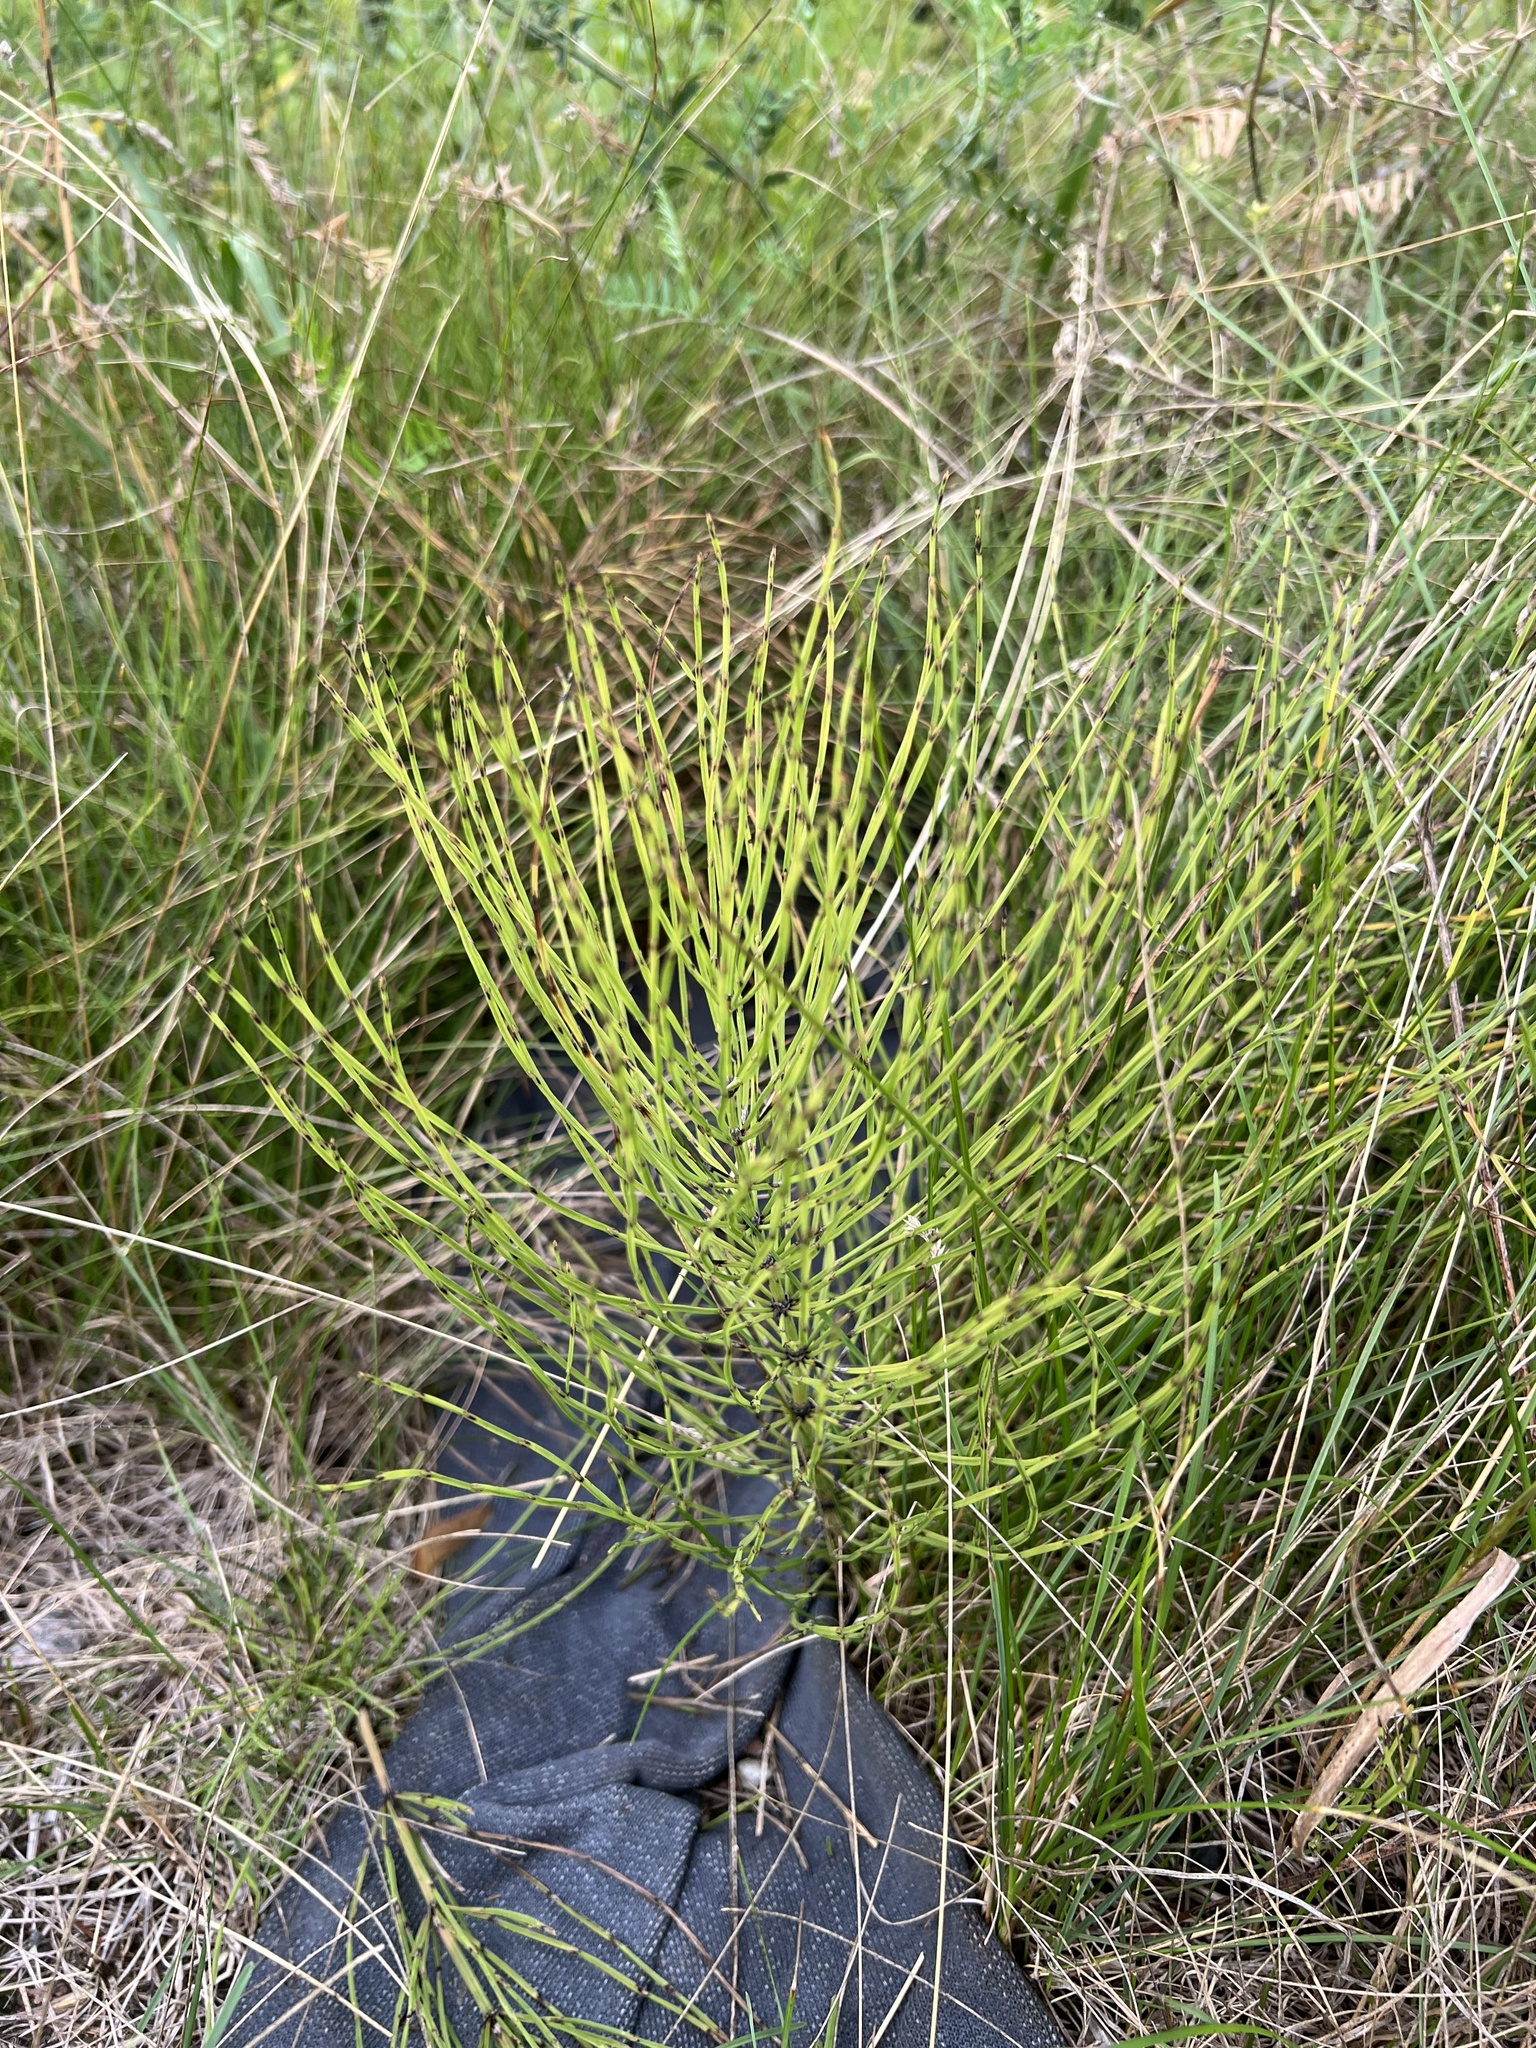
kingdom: Plantae
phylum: Tracheophyta
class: Polypodiopsida
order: Equisetales
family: Equisetaceae
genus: Equisetum
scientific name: Equisetum arvense
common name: Field horsetail
